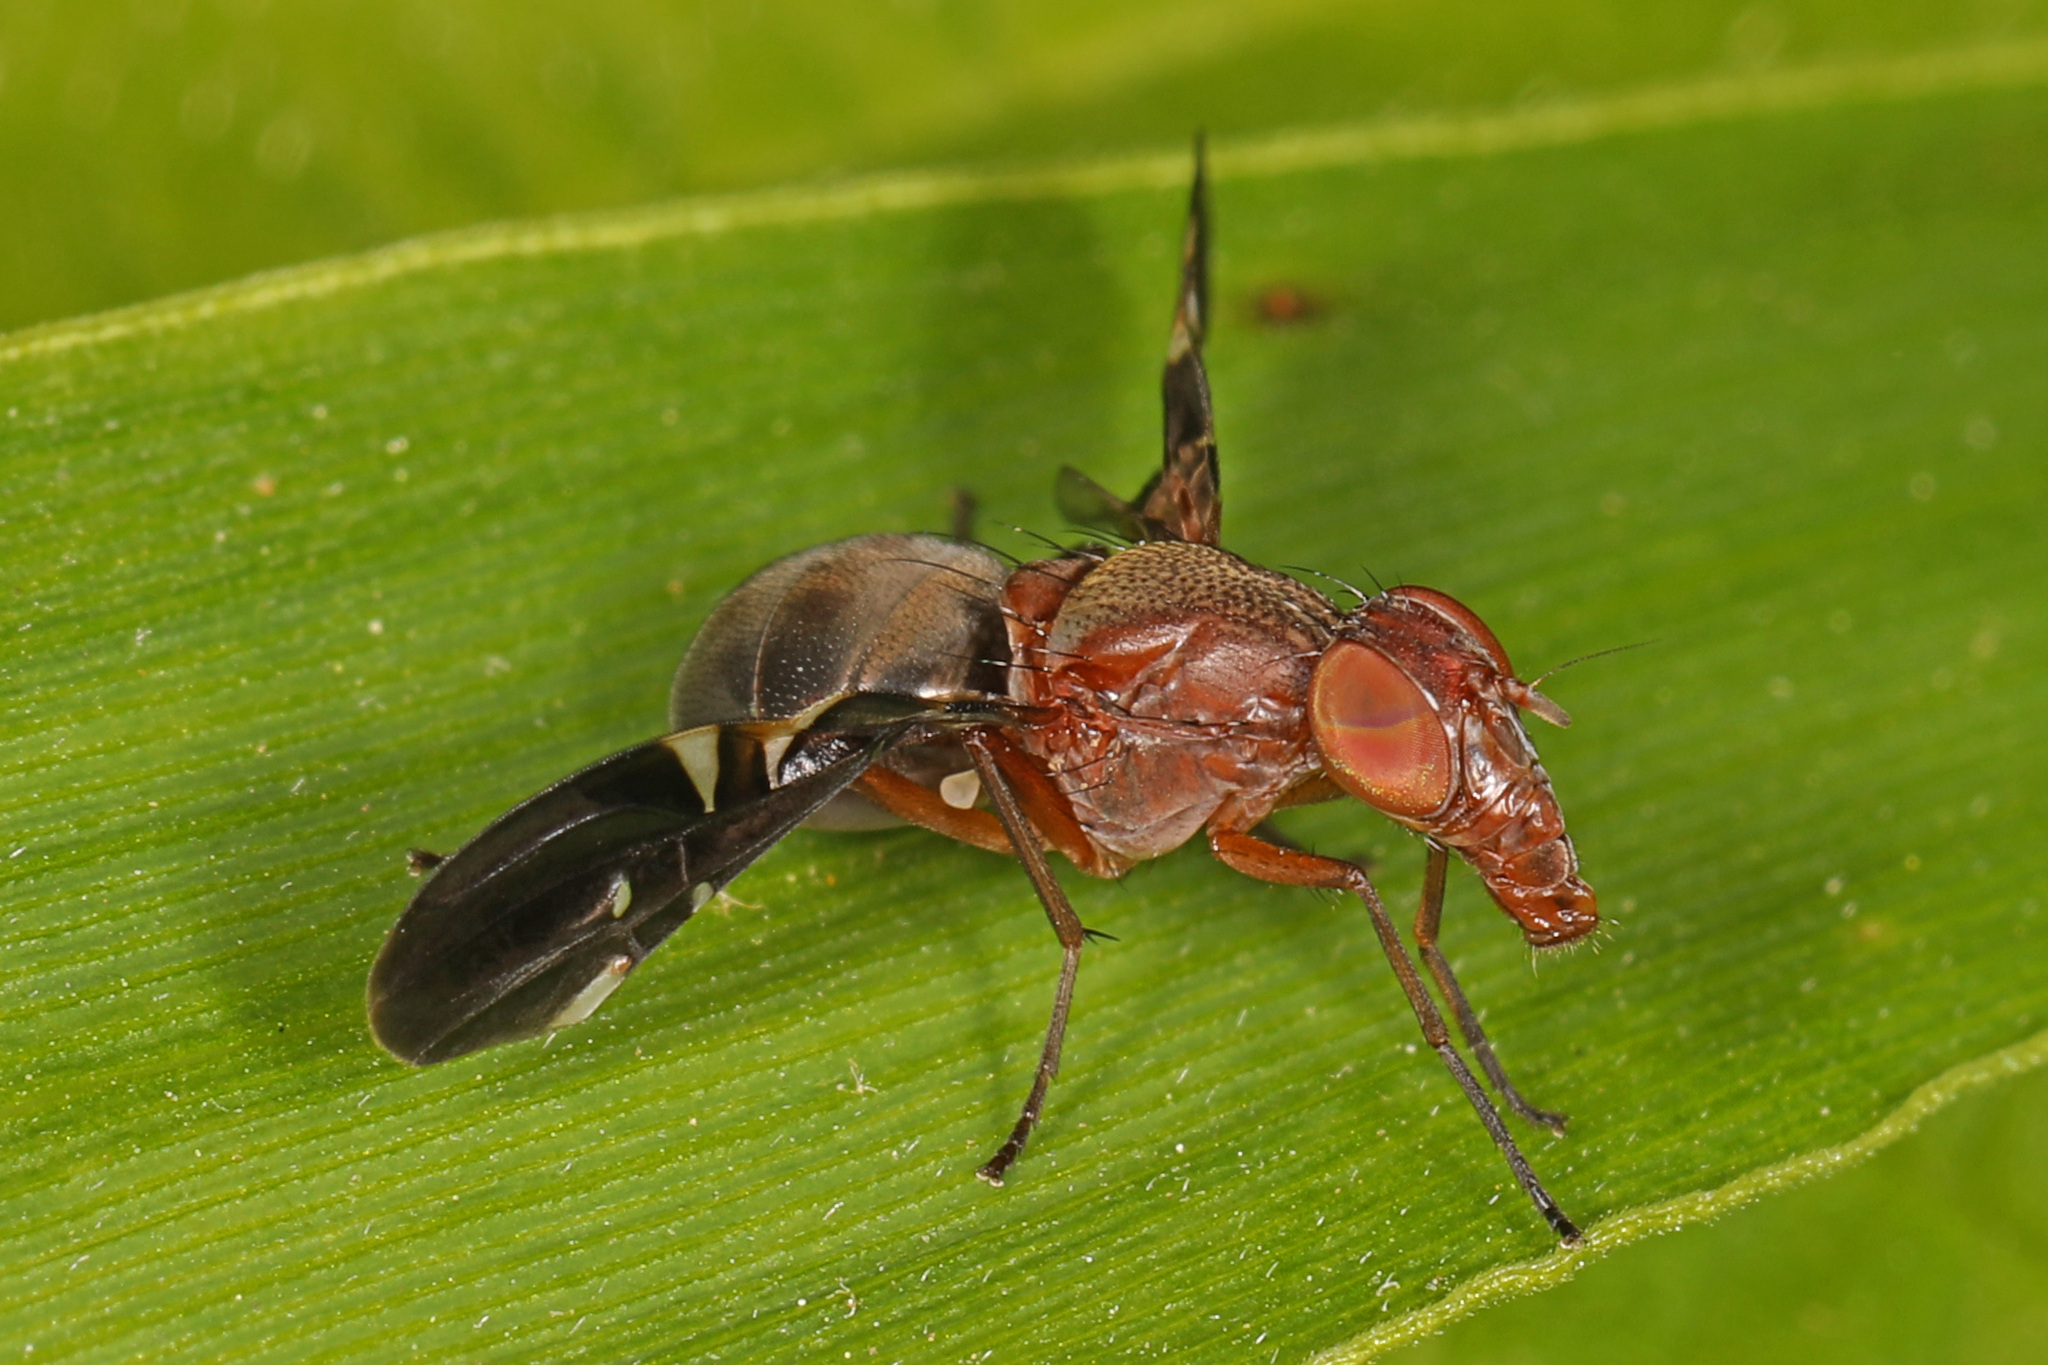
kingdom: Animalia
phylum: Arthropoda
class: Insecta
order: Diptera
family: Ulidiidae
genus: Delphinia
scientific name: Delphinia picta
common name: Common picture-winged fly
